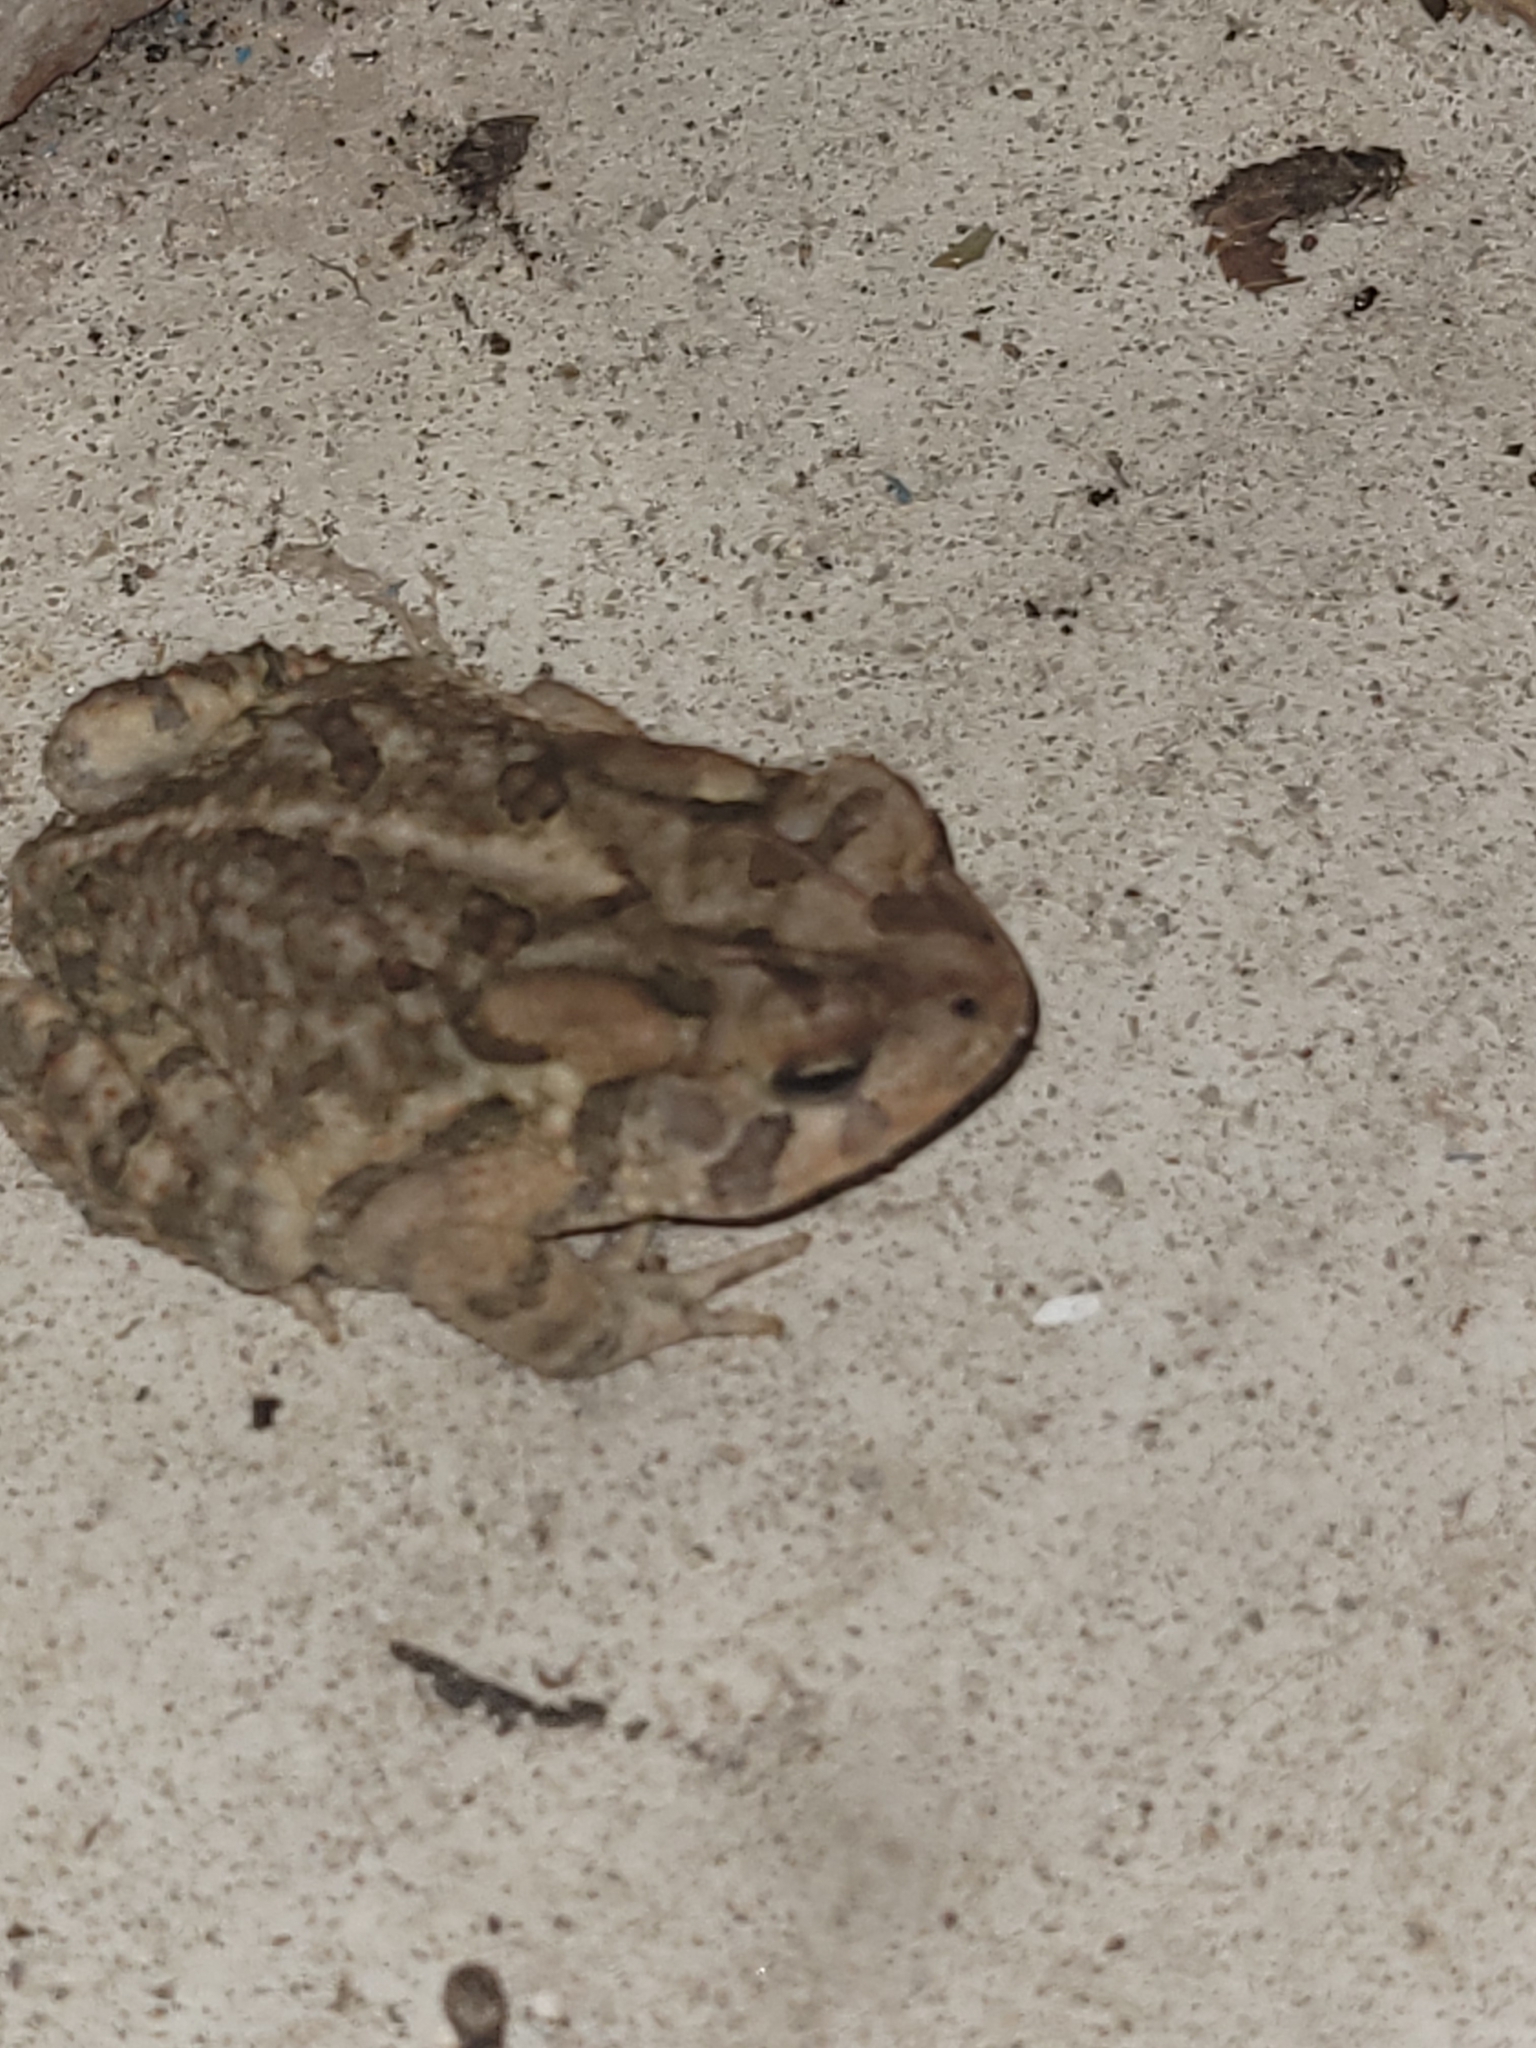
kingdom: Animalia
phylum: Chordata
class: Amphibia
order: Anura
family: Bufonidae
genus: Anaxyrus
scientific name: Anaxyrus terrestris
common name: Southern toad
